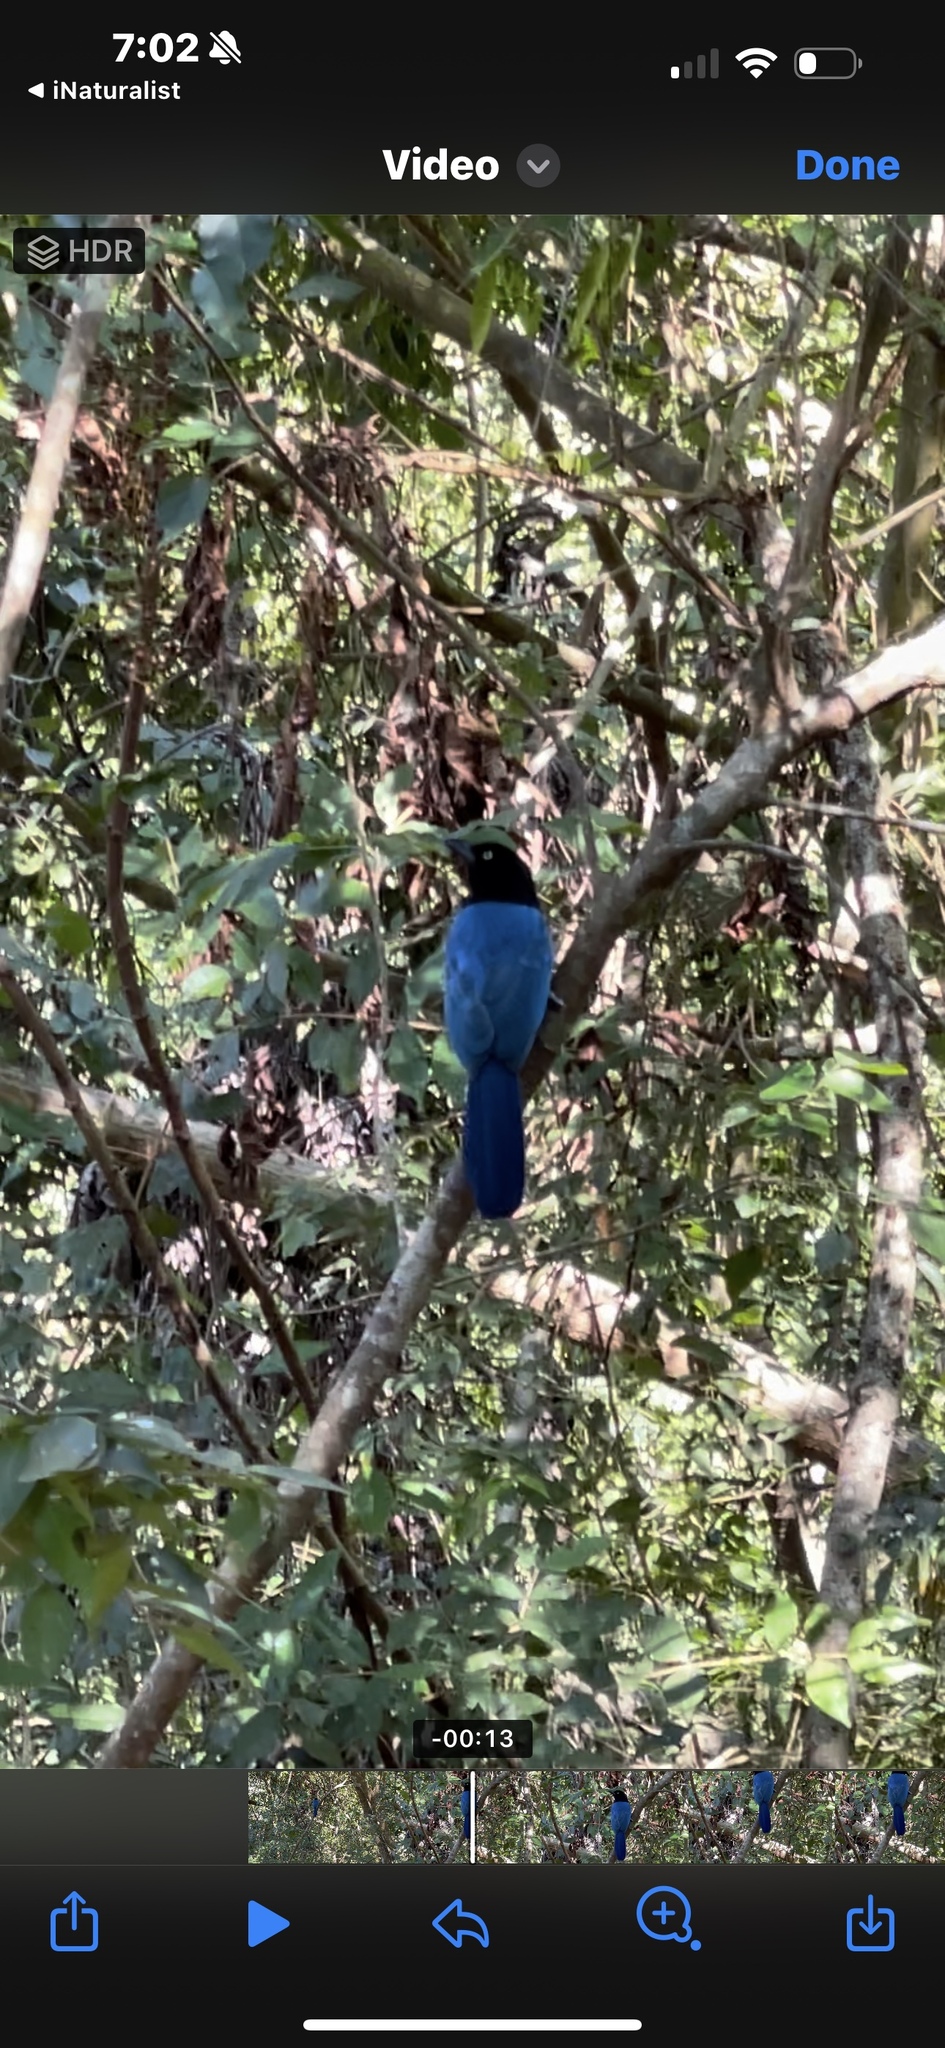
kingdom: Animalia
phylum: Chordata
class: Aves
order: Passeriformes
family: Corvidae
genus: Cyanocorax
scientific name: Cyanocorax sanblasianus
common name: San blas jay
